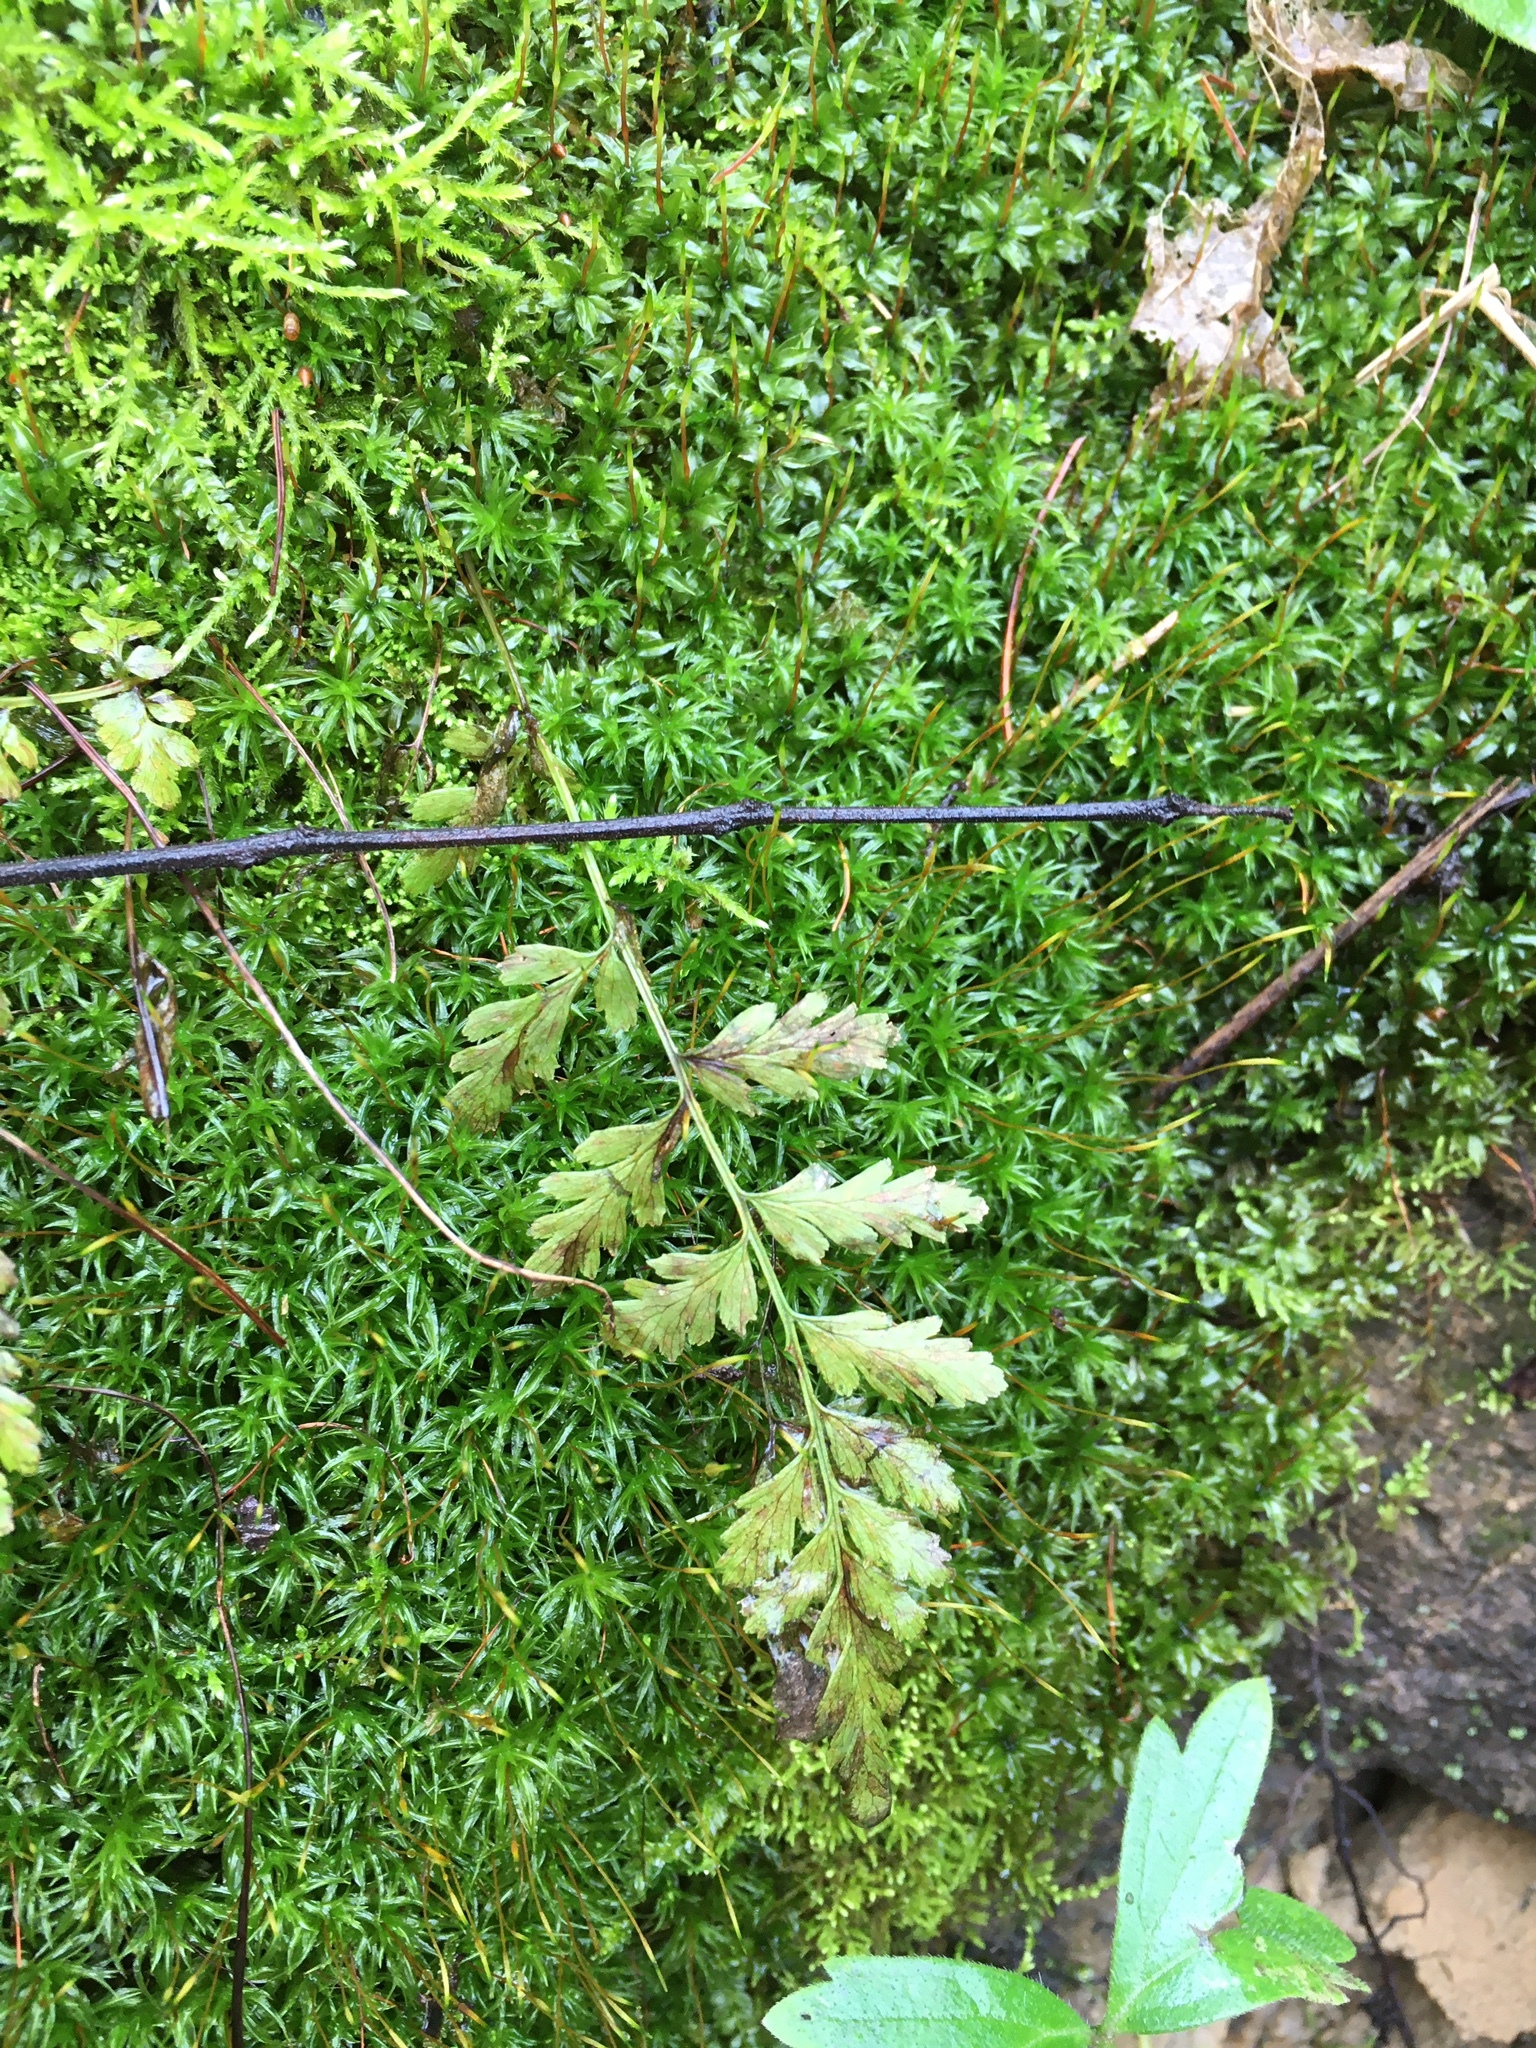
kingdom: Plantae
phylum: Tracheophyta
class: Polypodiopsida
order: Polypodiales
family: Cystopteridaceae
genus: Cystopteris
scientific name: Cystopteris fragilis
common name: Brittle bladder fern
